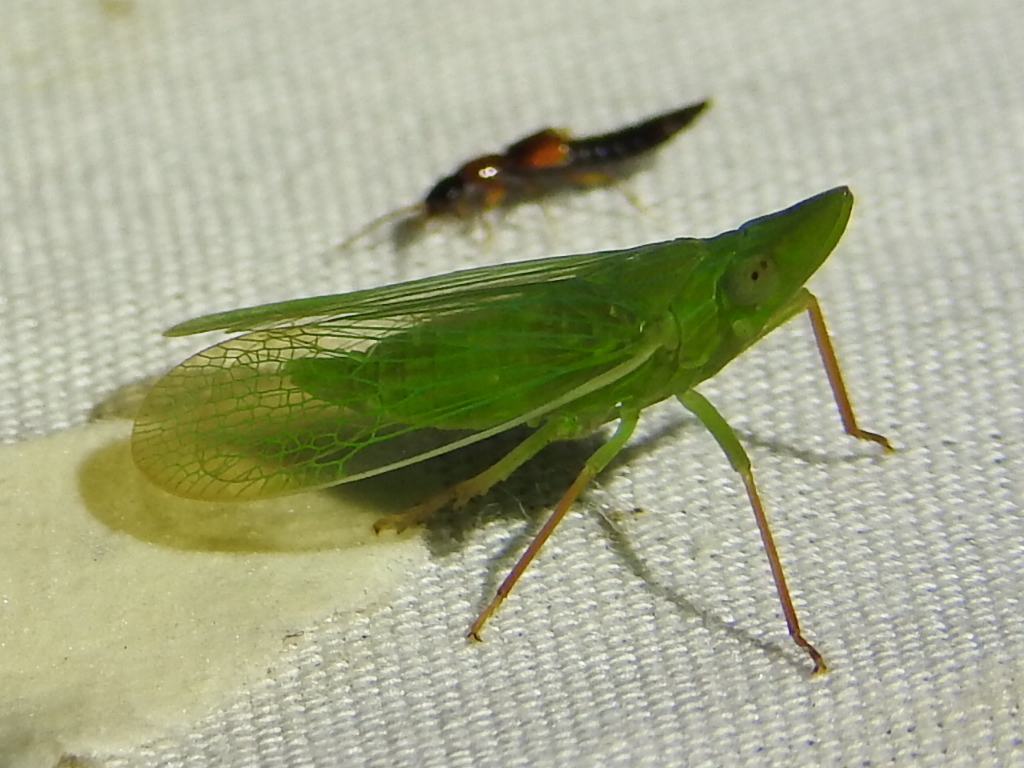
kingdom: Animalia
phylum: Arthropoda
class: Insecta
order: Hemiptera
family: Dictyopharidae
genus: Rhynchomitra
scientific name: Rhynchomitra microrhina
